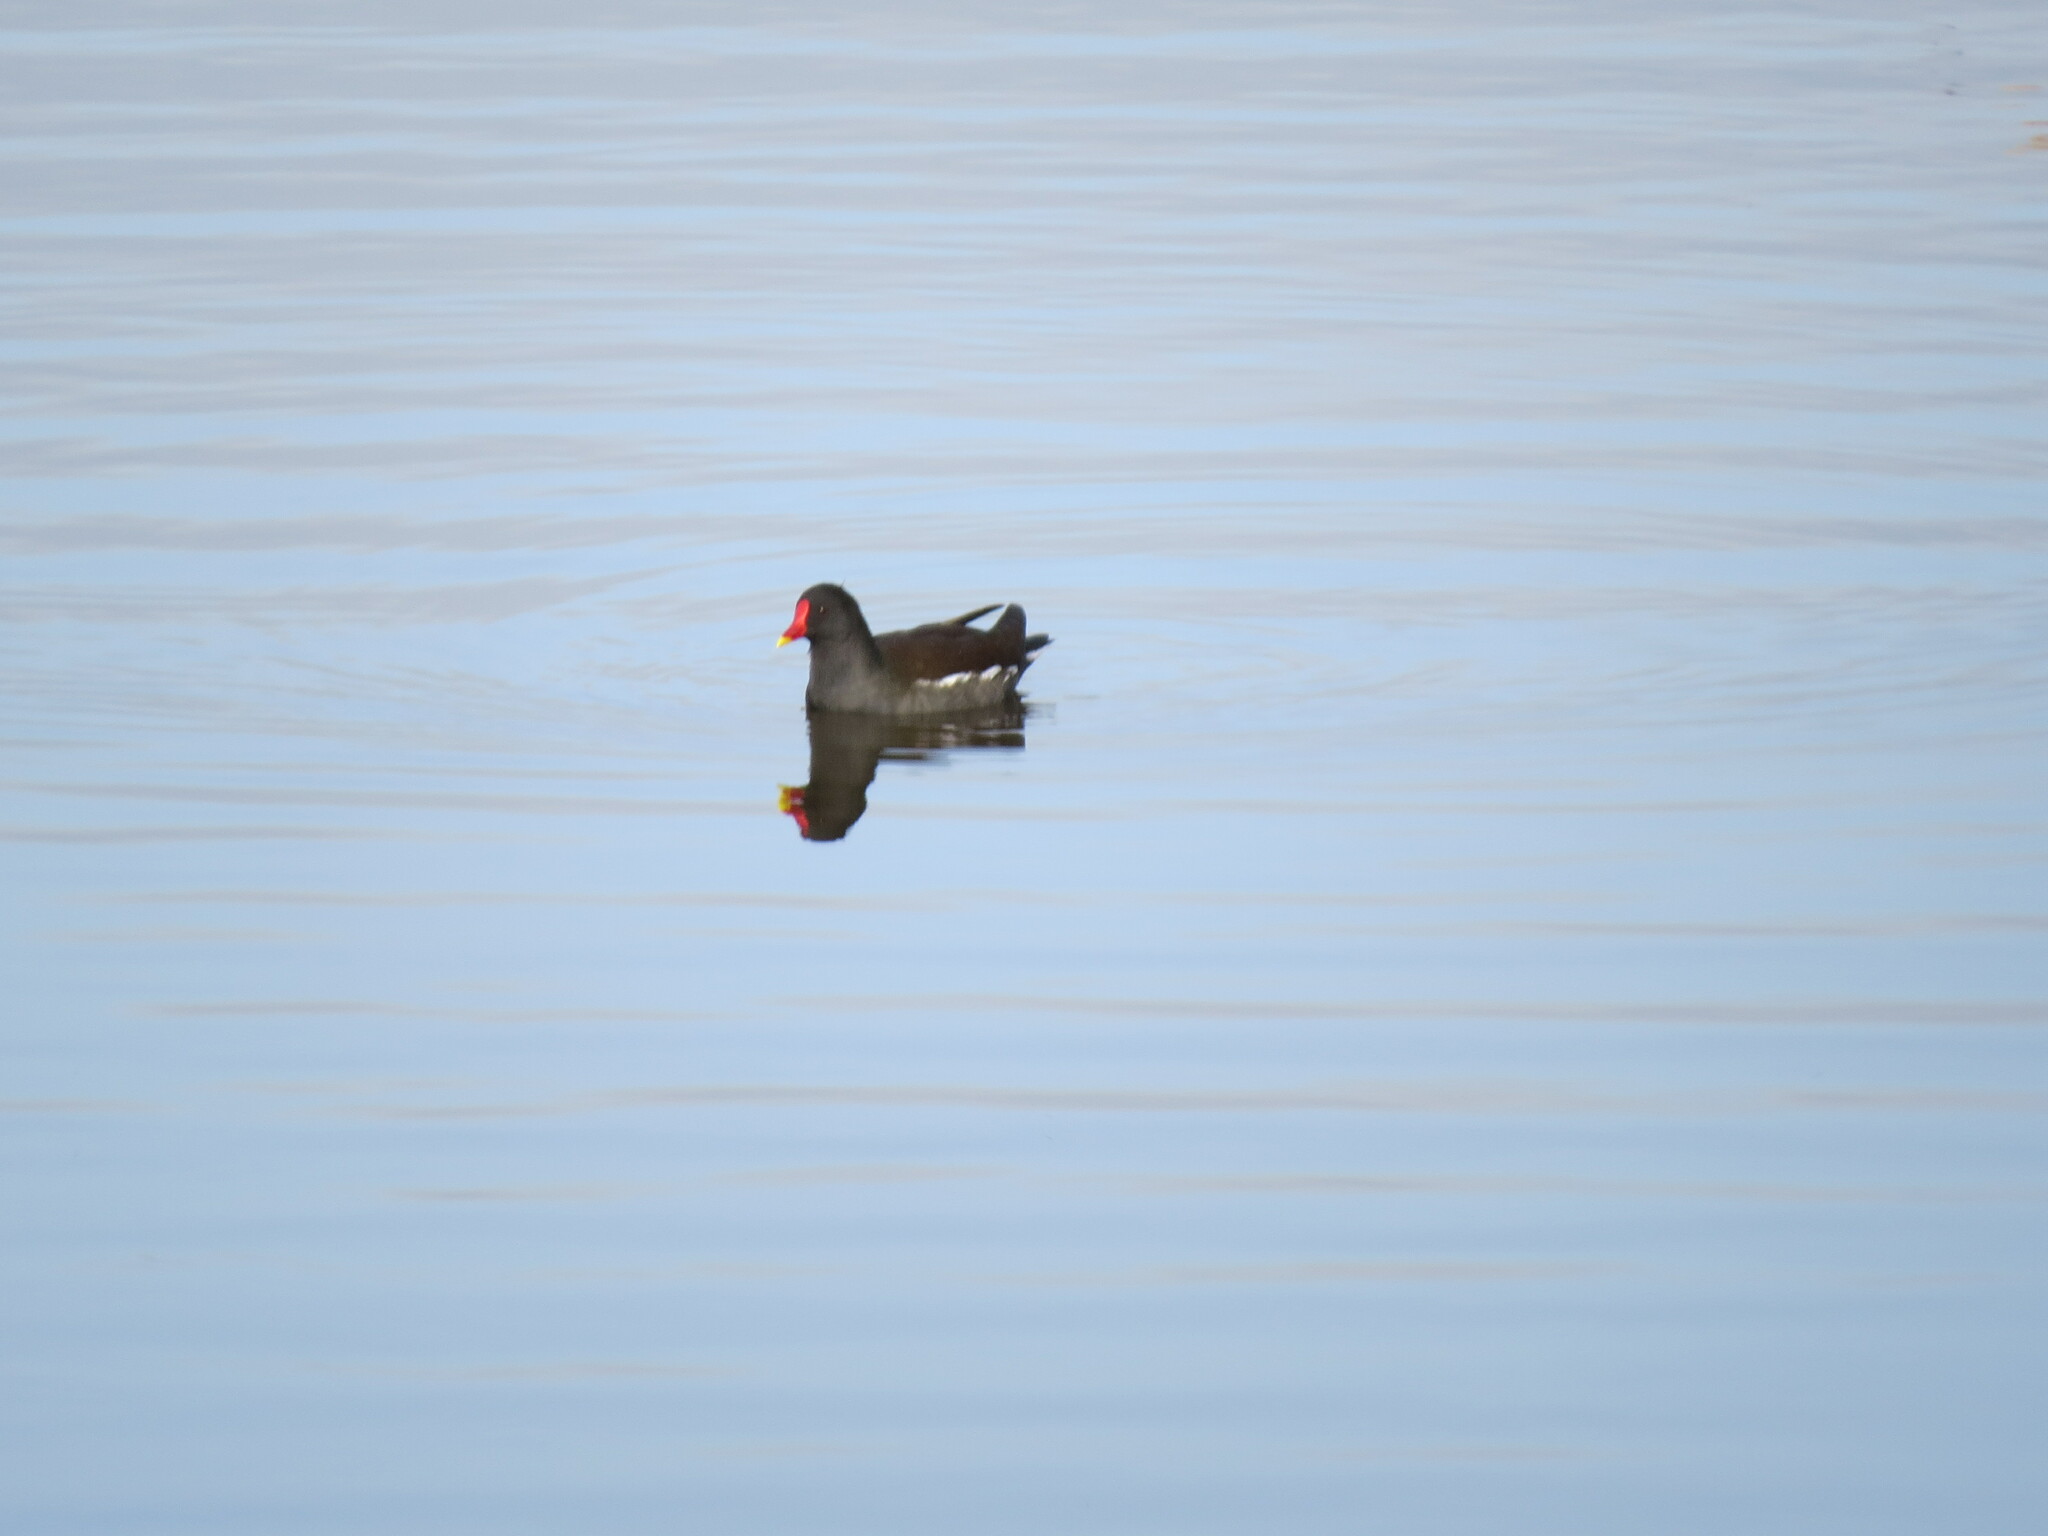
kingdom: Animalia
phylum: Chordata
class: Aves
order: Gruiformes
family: Rallidae
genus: Gallinula
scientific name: Gallinula chloropus
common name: Common moorhen
